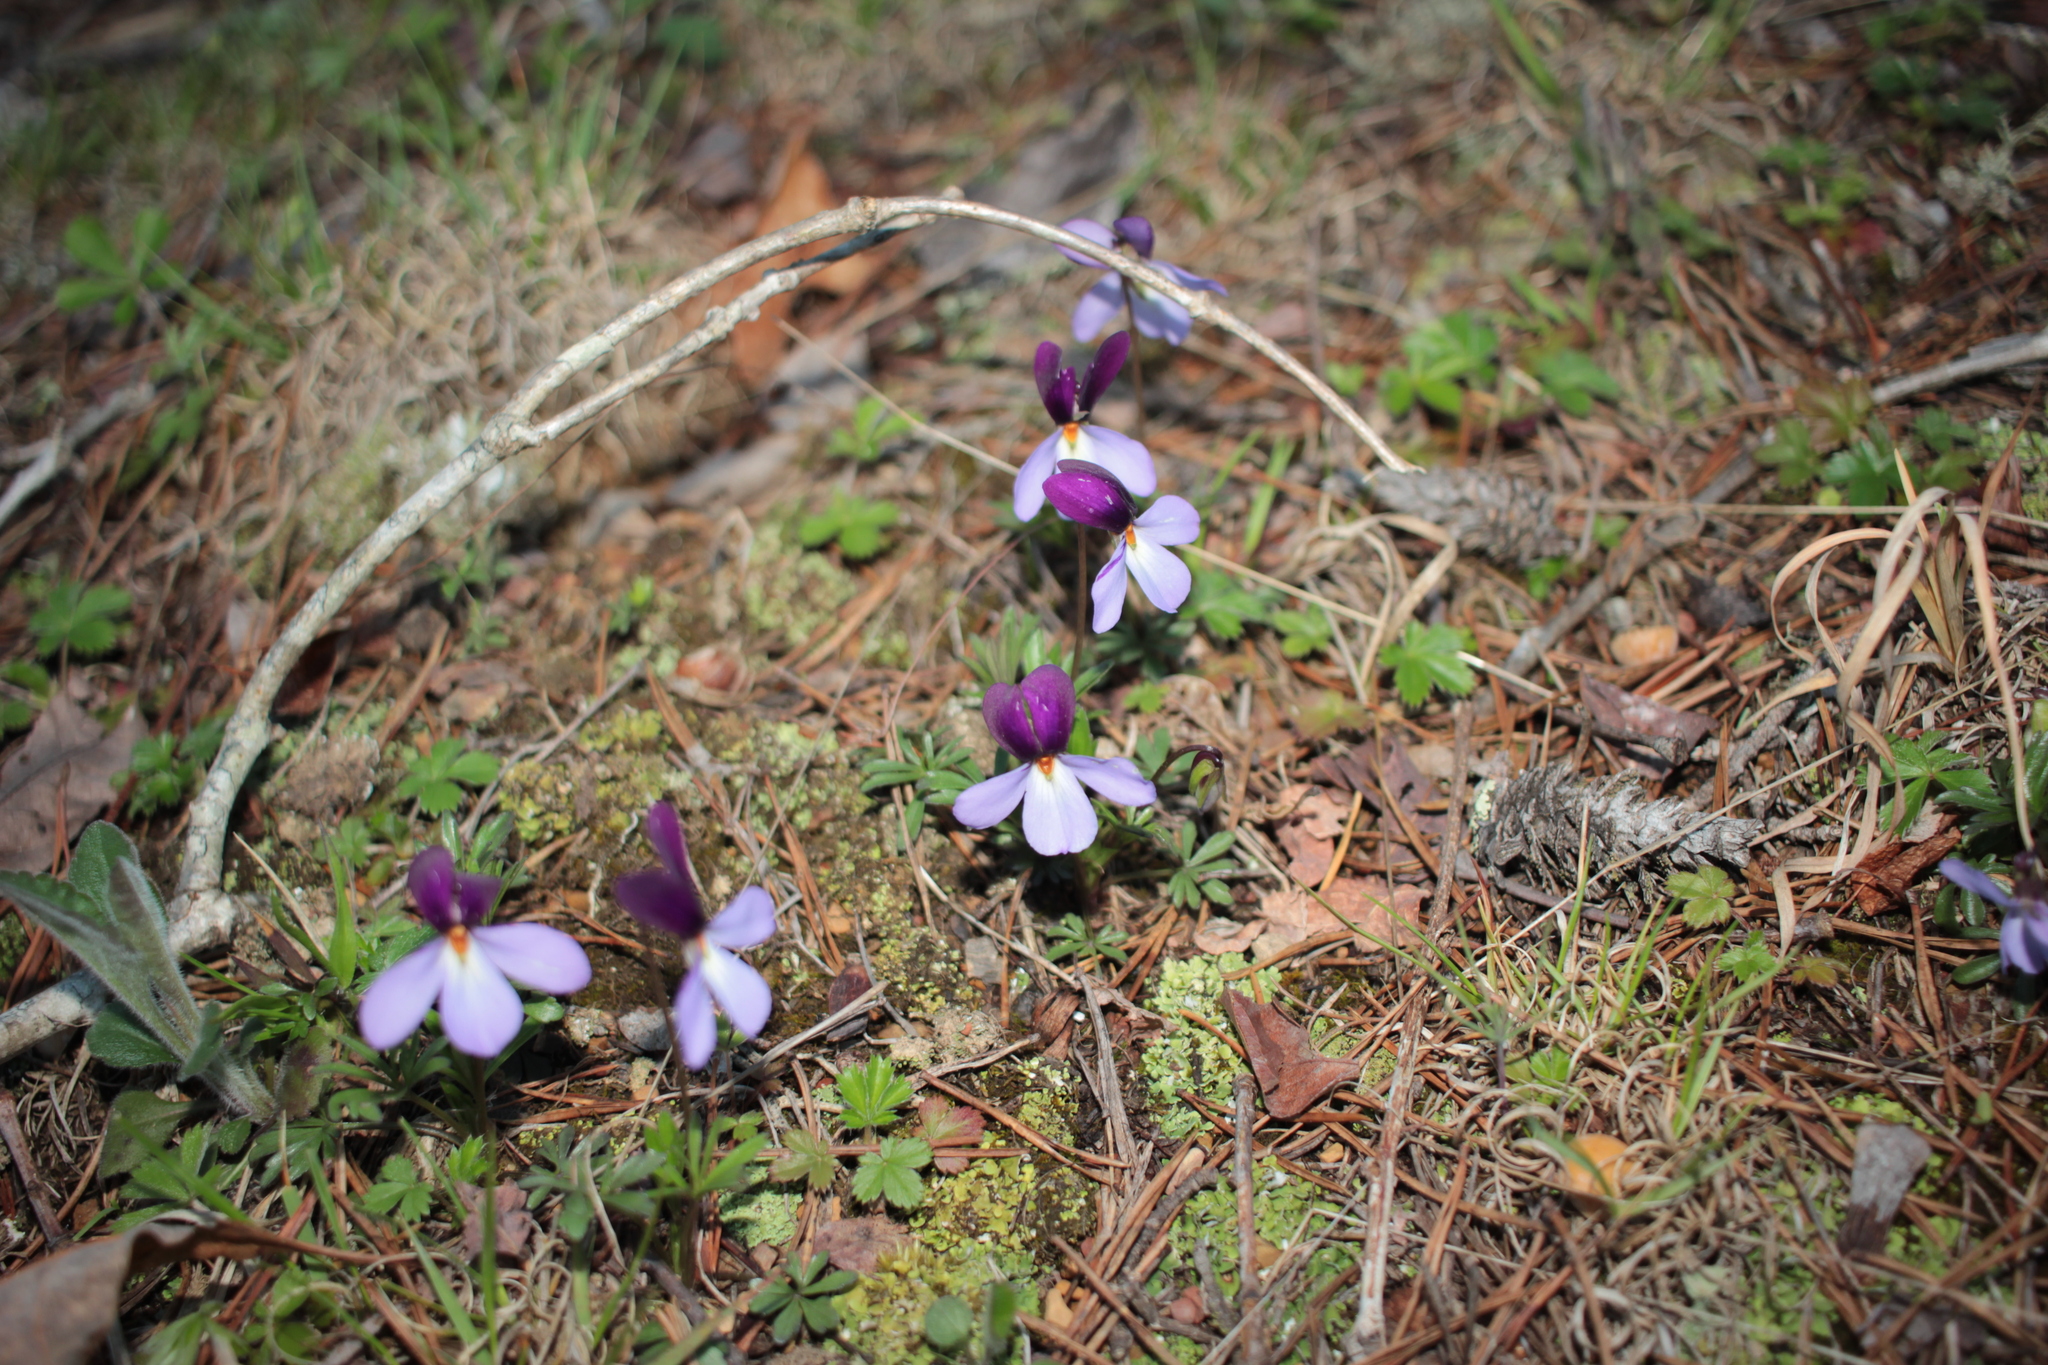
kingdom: Plantae
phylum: Tracheophyta
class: Magnoliopsida
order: Malpighiales
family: Violaceae
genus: Viola
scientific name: Viola pedata
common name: Pansy violet
